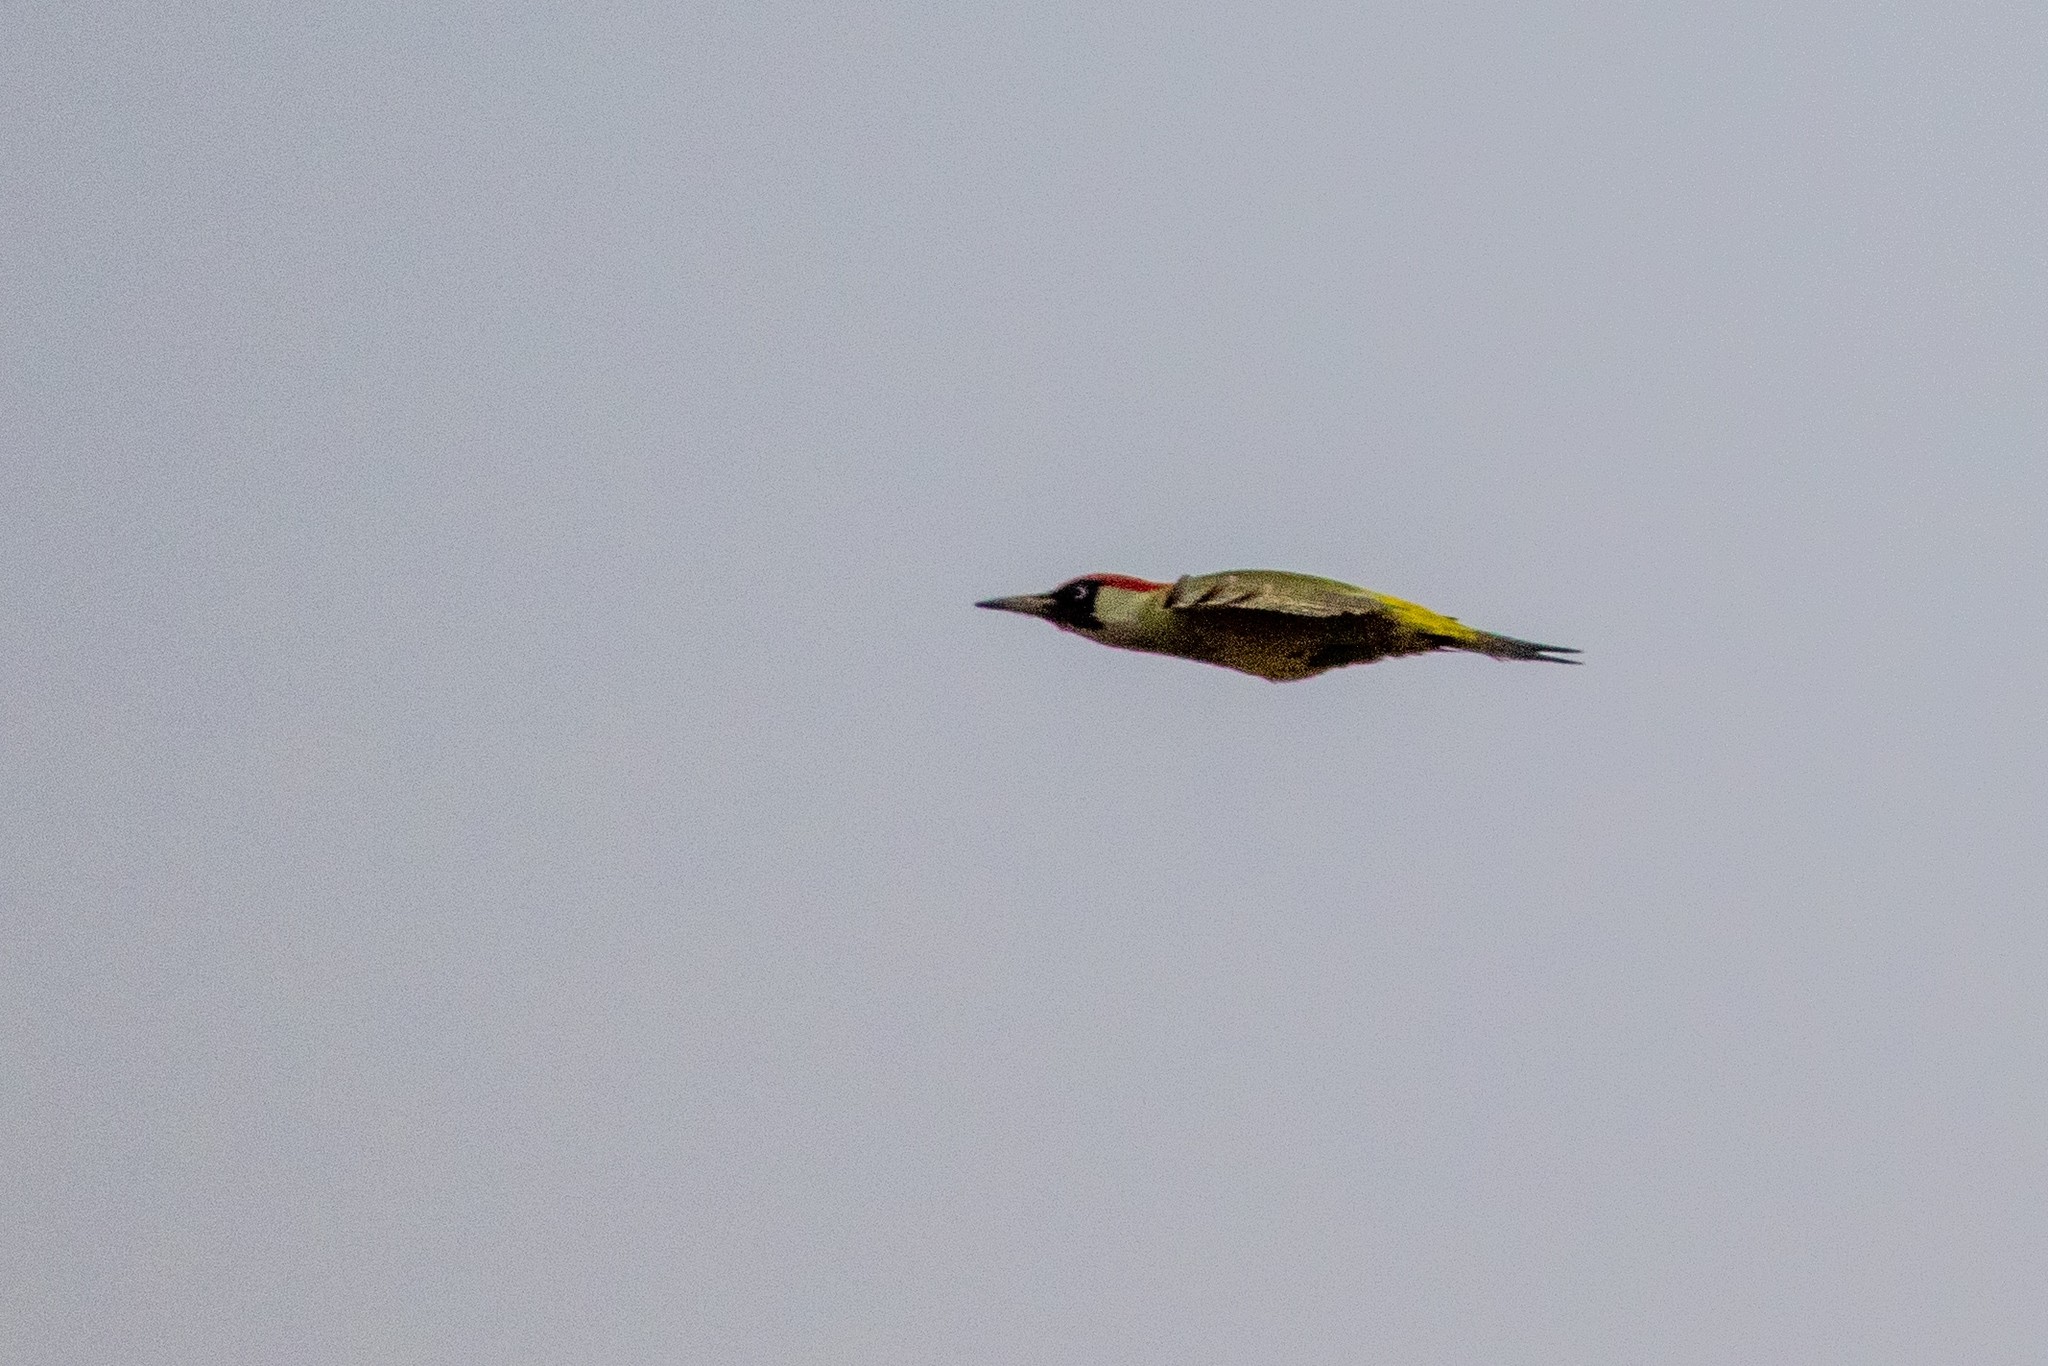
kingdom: Animalia
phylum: Chordata
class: Aves
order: Piciformes
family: Picidae
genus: Picus
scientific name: Picus viridis
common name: European green woodpecker
